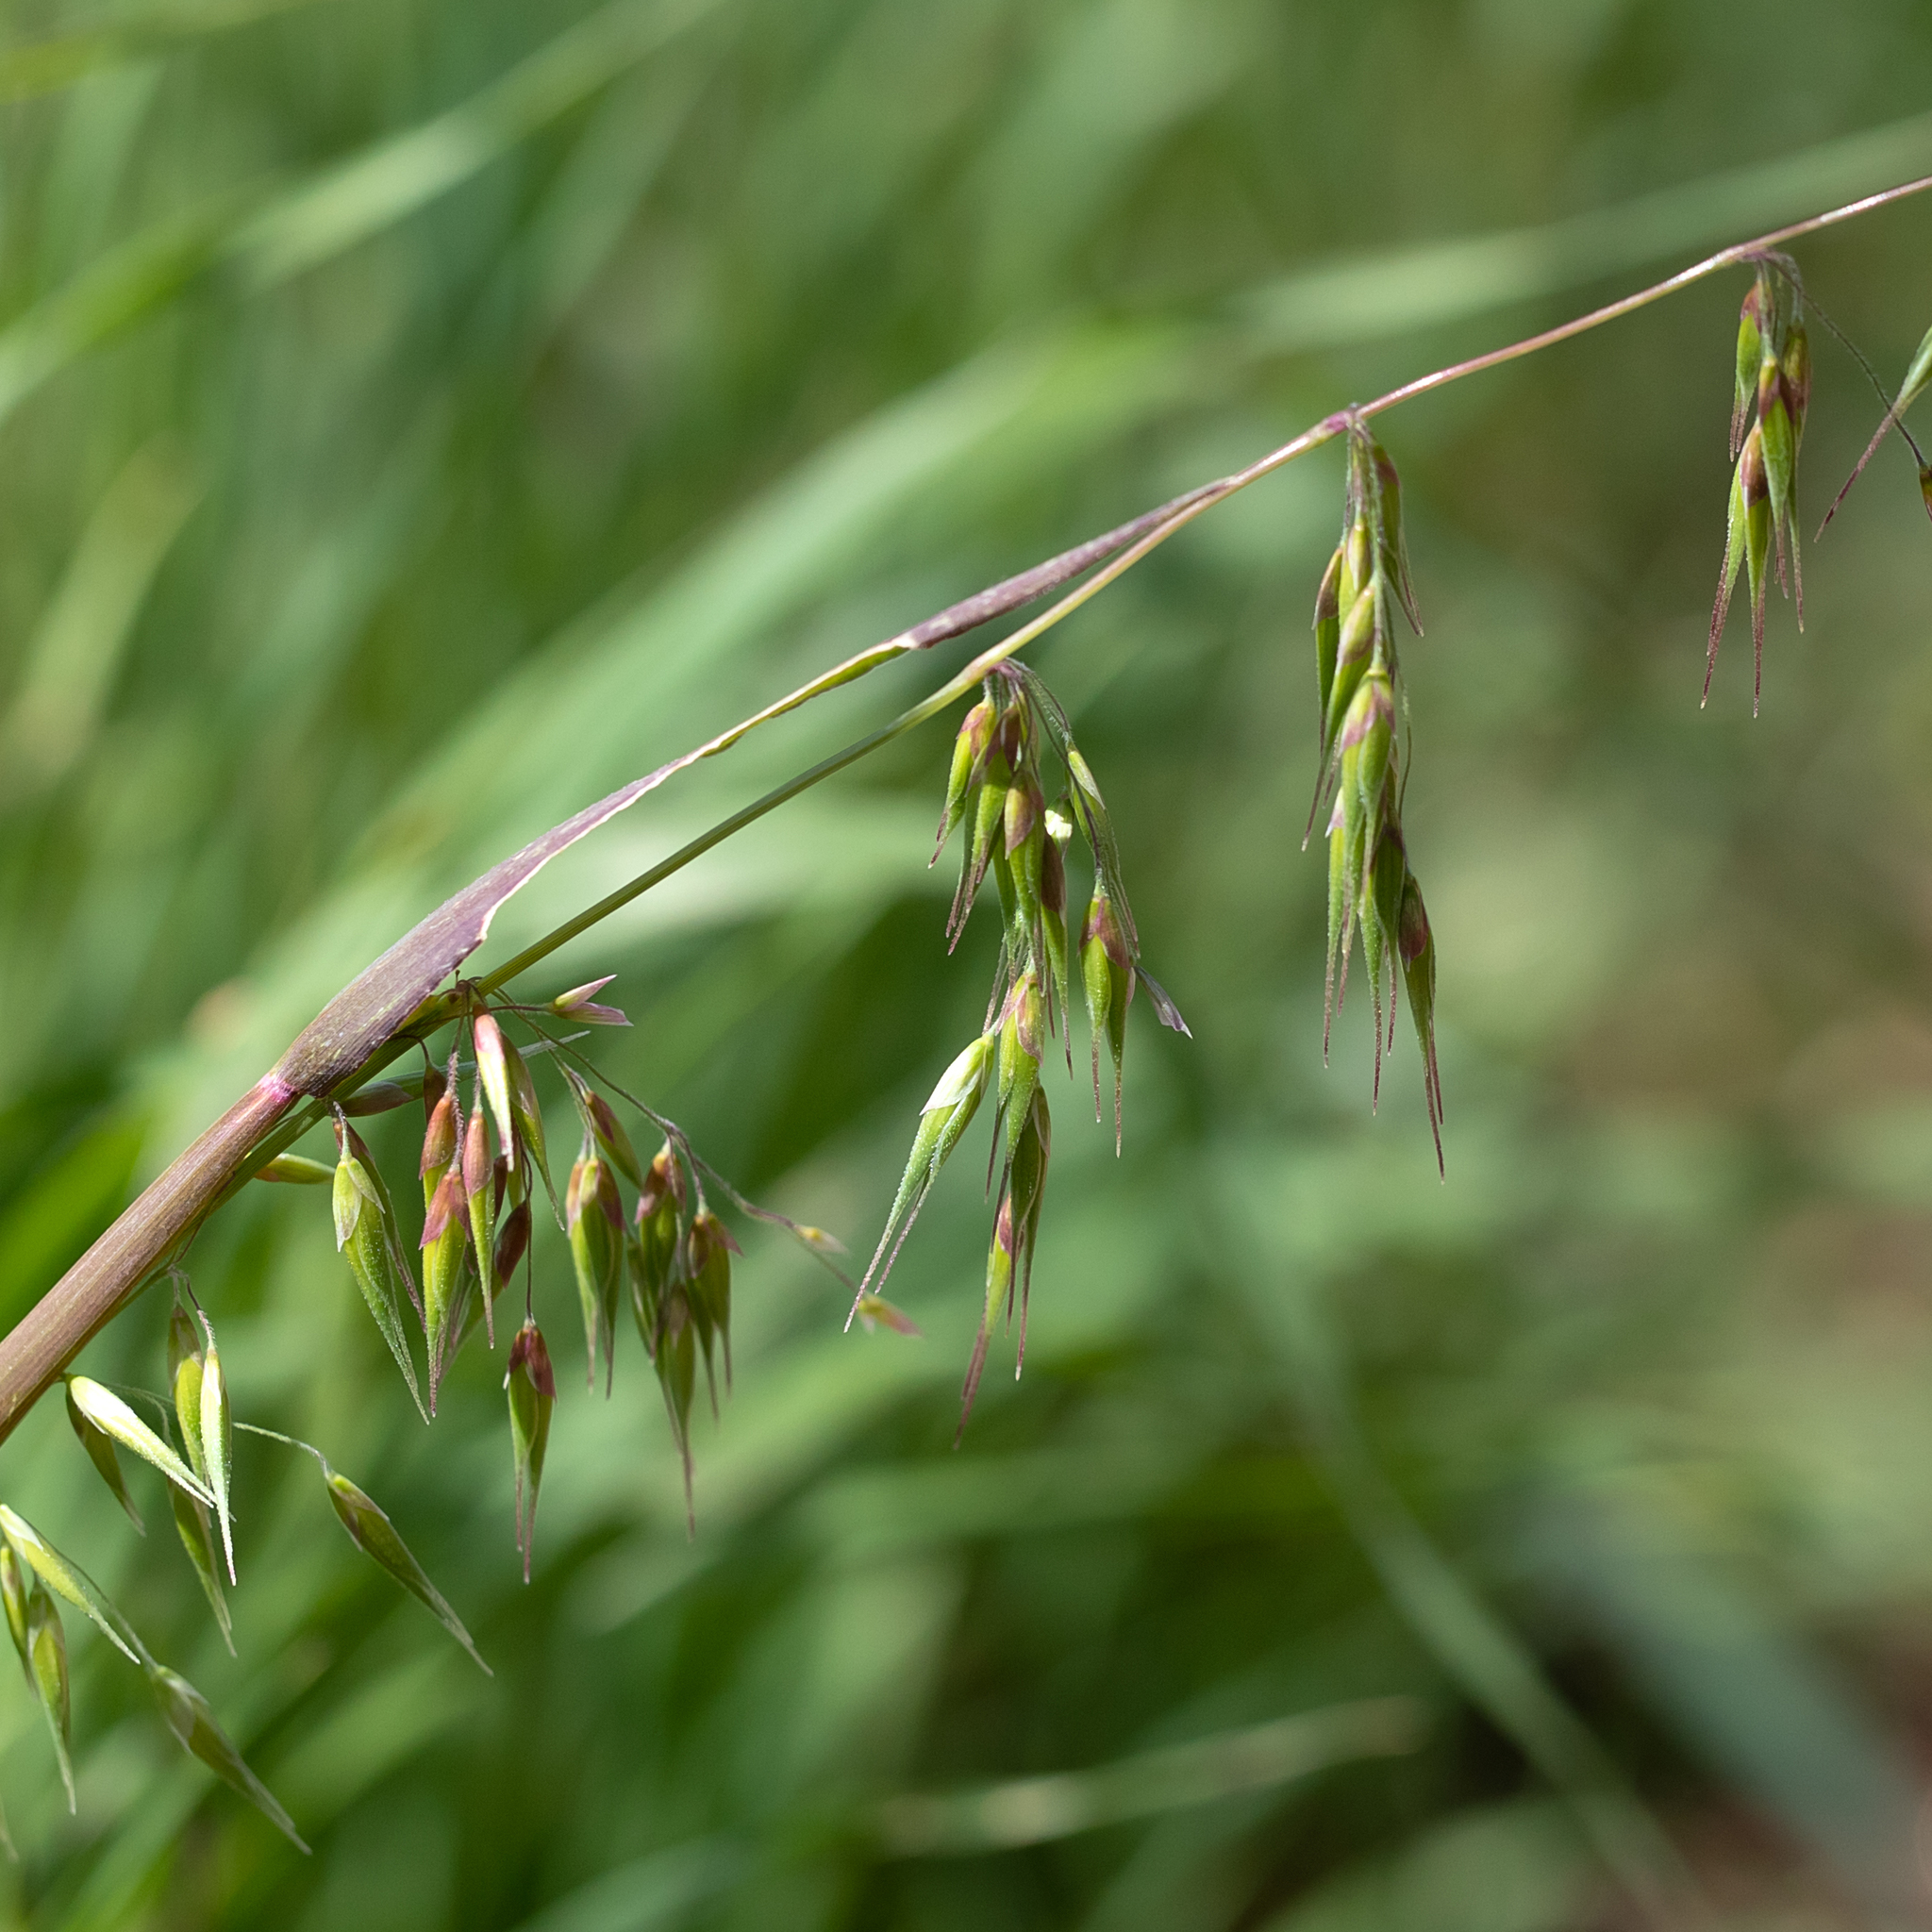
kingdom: Plantae
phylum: Tracheophyta
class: Liliopsida
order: Poales
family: Poaceae
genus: Ehrharta
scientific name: Ehrharta longiflora
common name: Longflowered veldtgrass
